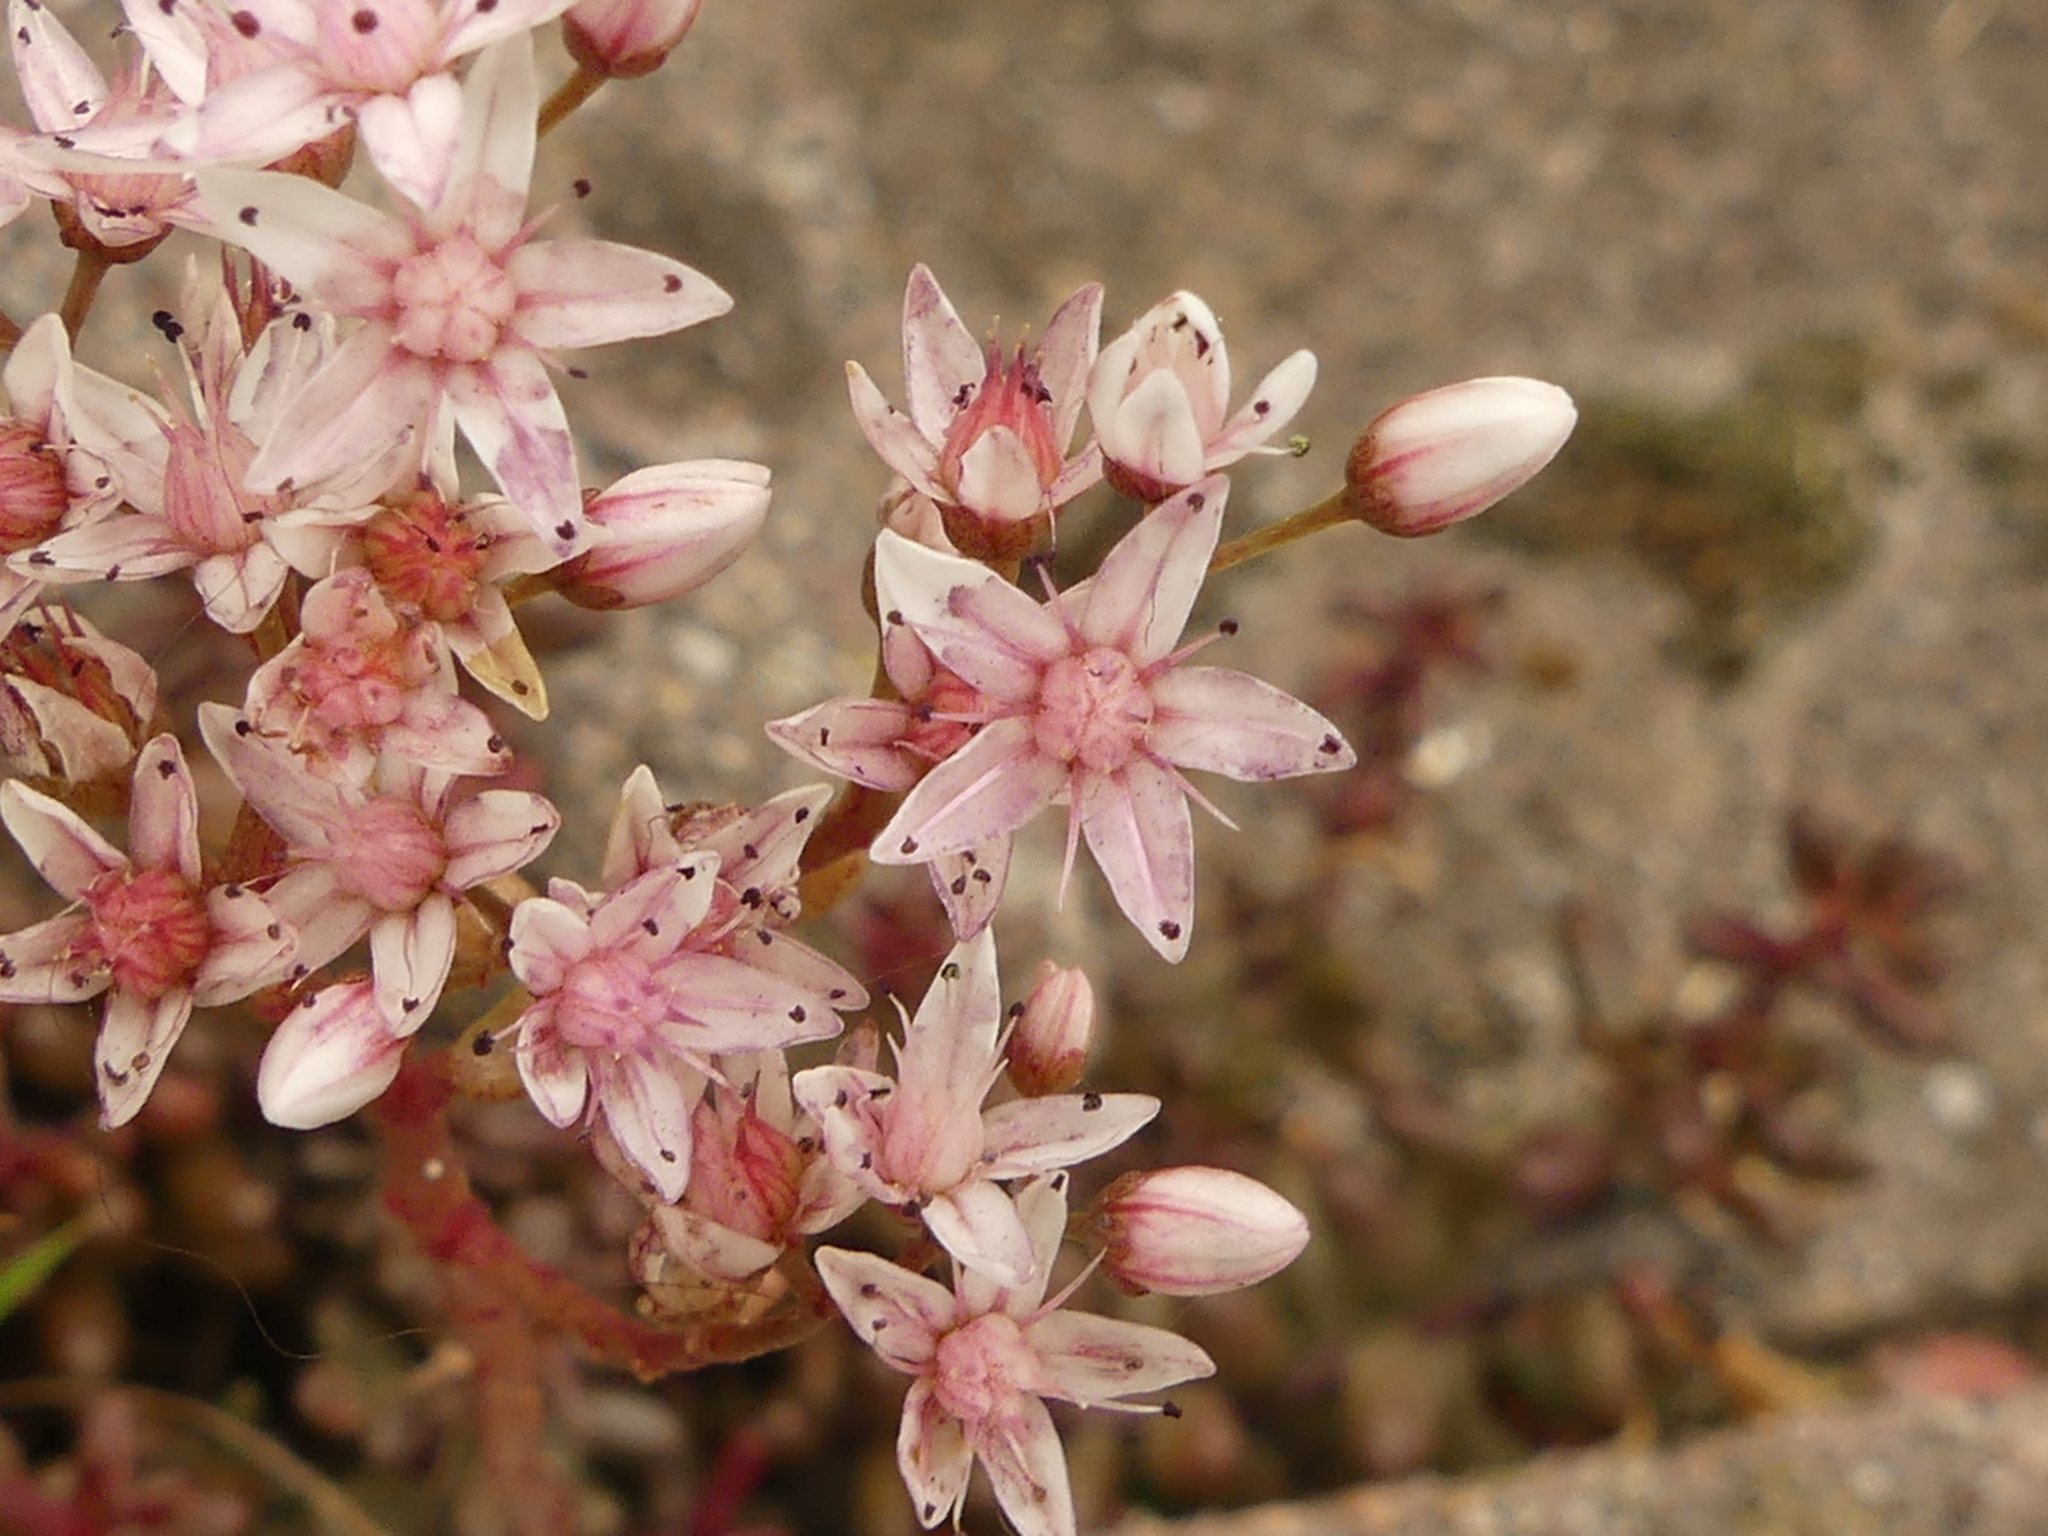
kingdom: Plantae
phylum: Tracheophyta
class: Magnoliopsida
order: Saxifragales
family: Crassulaceae
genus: Sedum
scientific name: Sedum album
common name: White stonecrop
